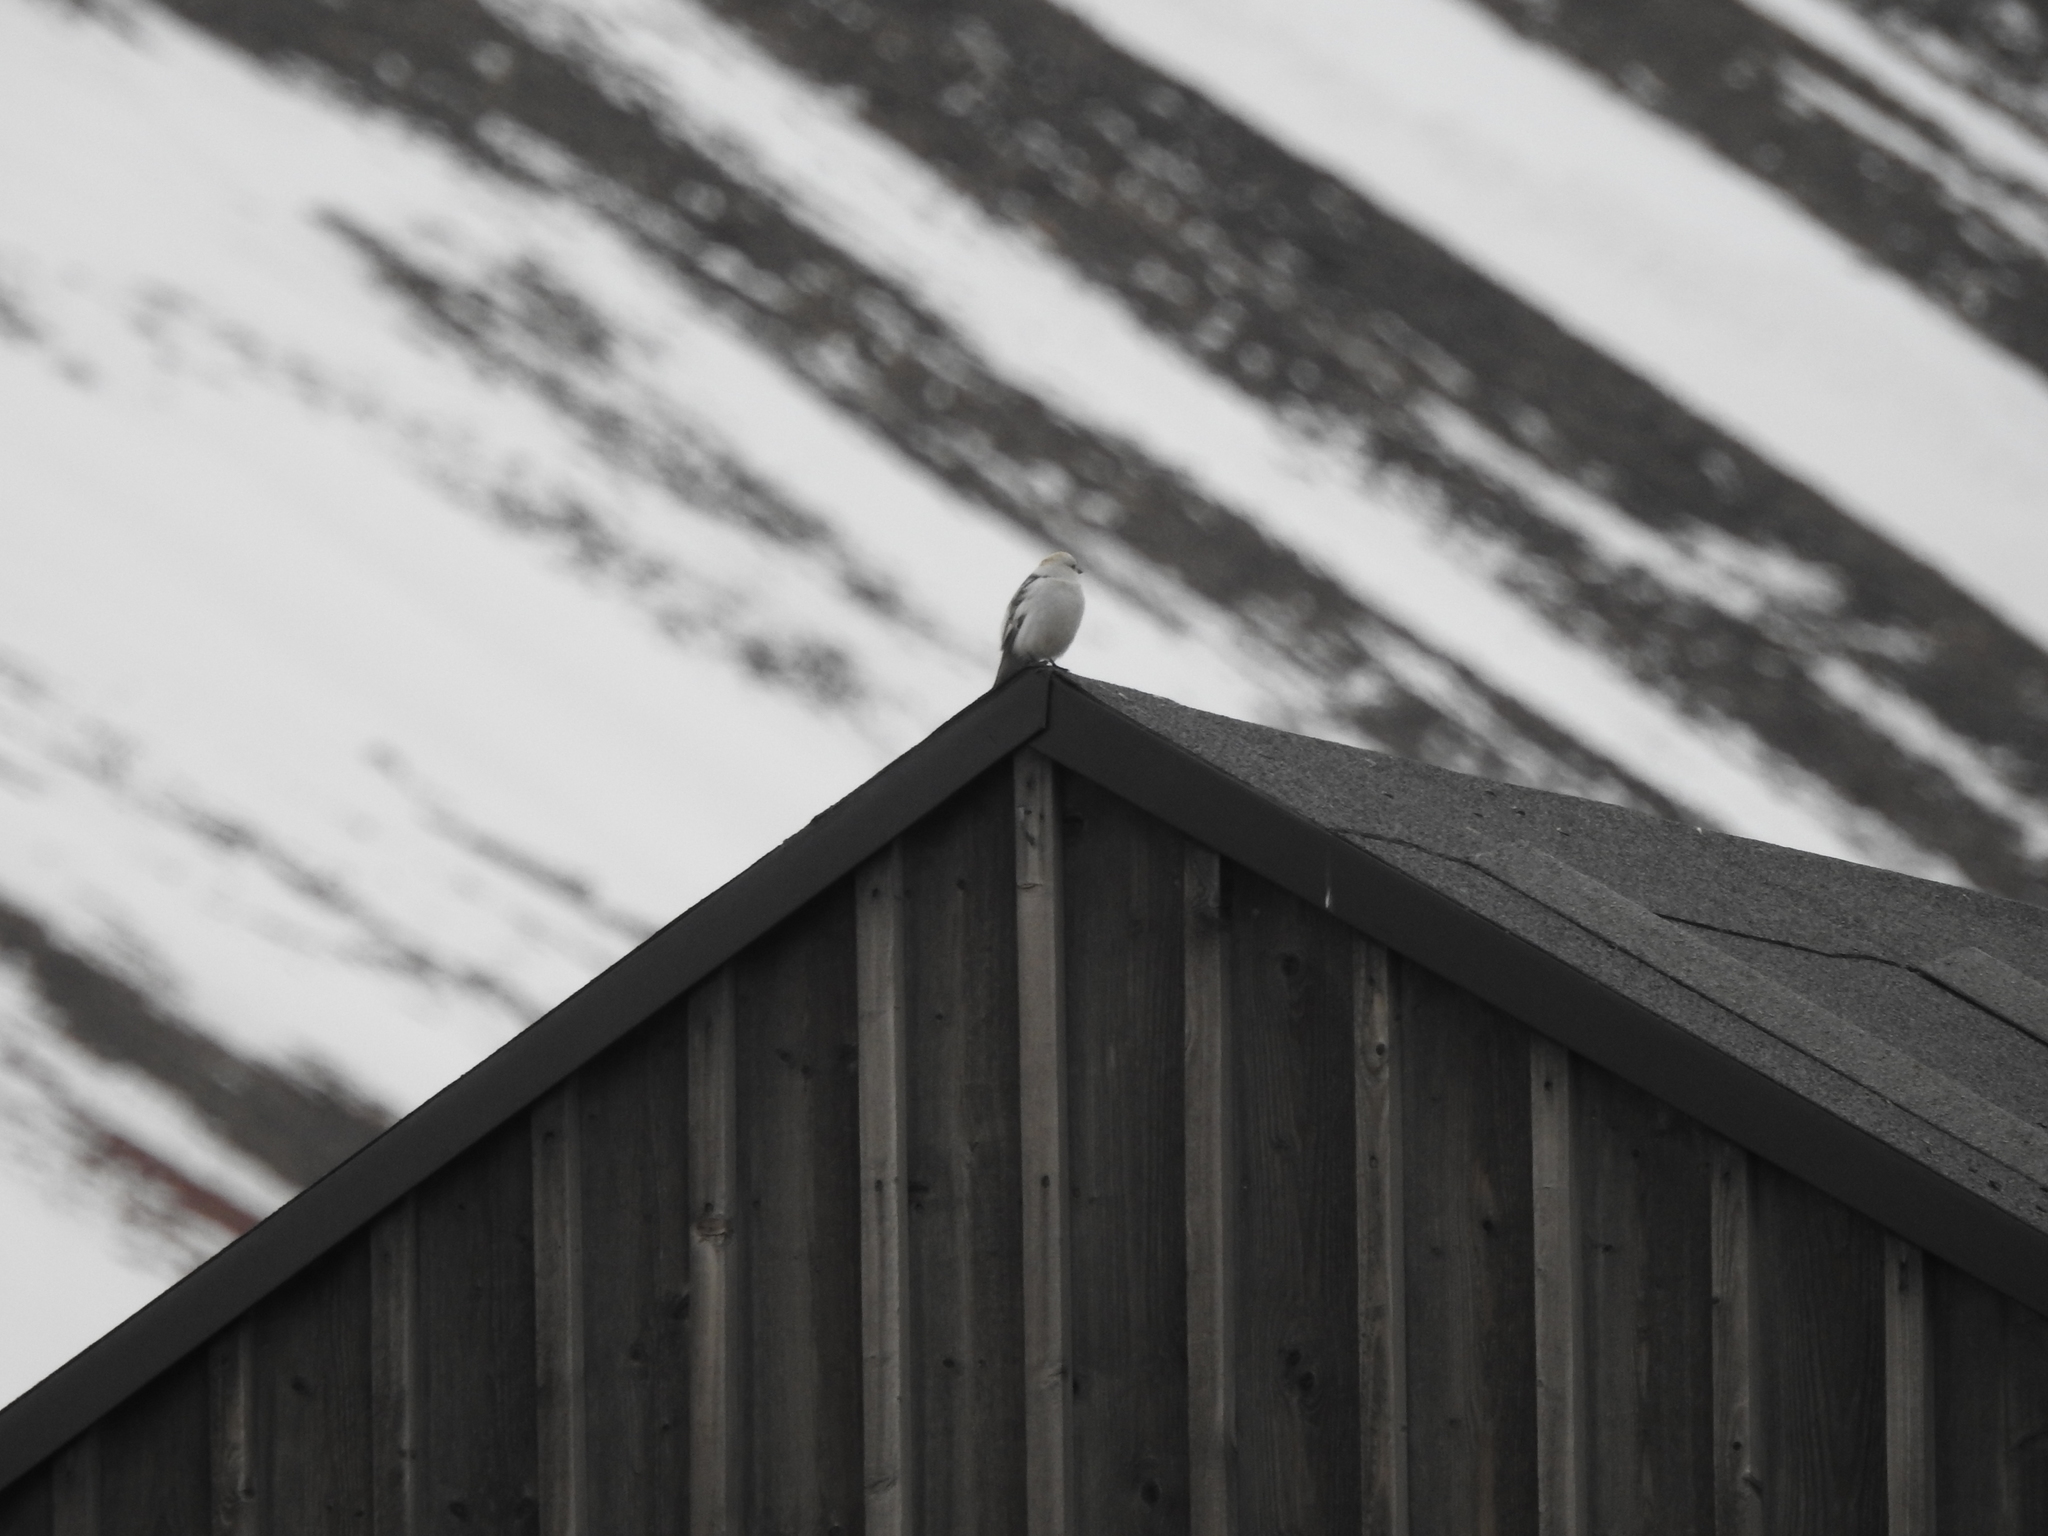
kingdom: Animalia
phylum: Chordata
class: Aves
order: Passeriformes
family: Calcariidae
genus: Plectrophenax
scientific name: Plectrophenax nivalis
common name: Snow bunting
